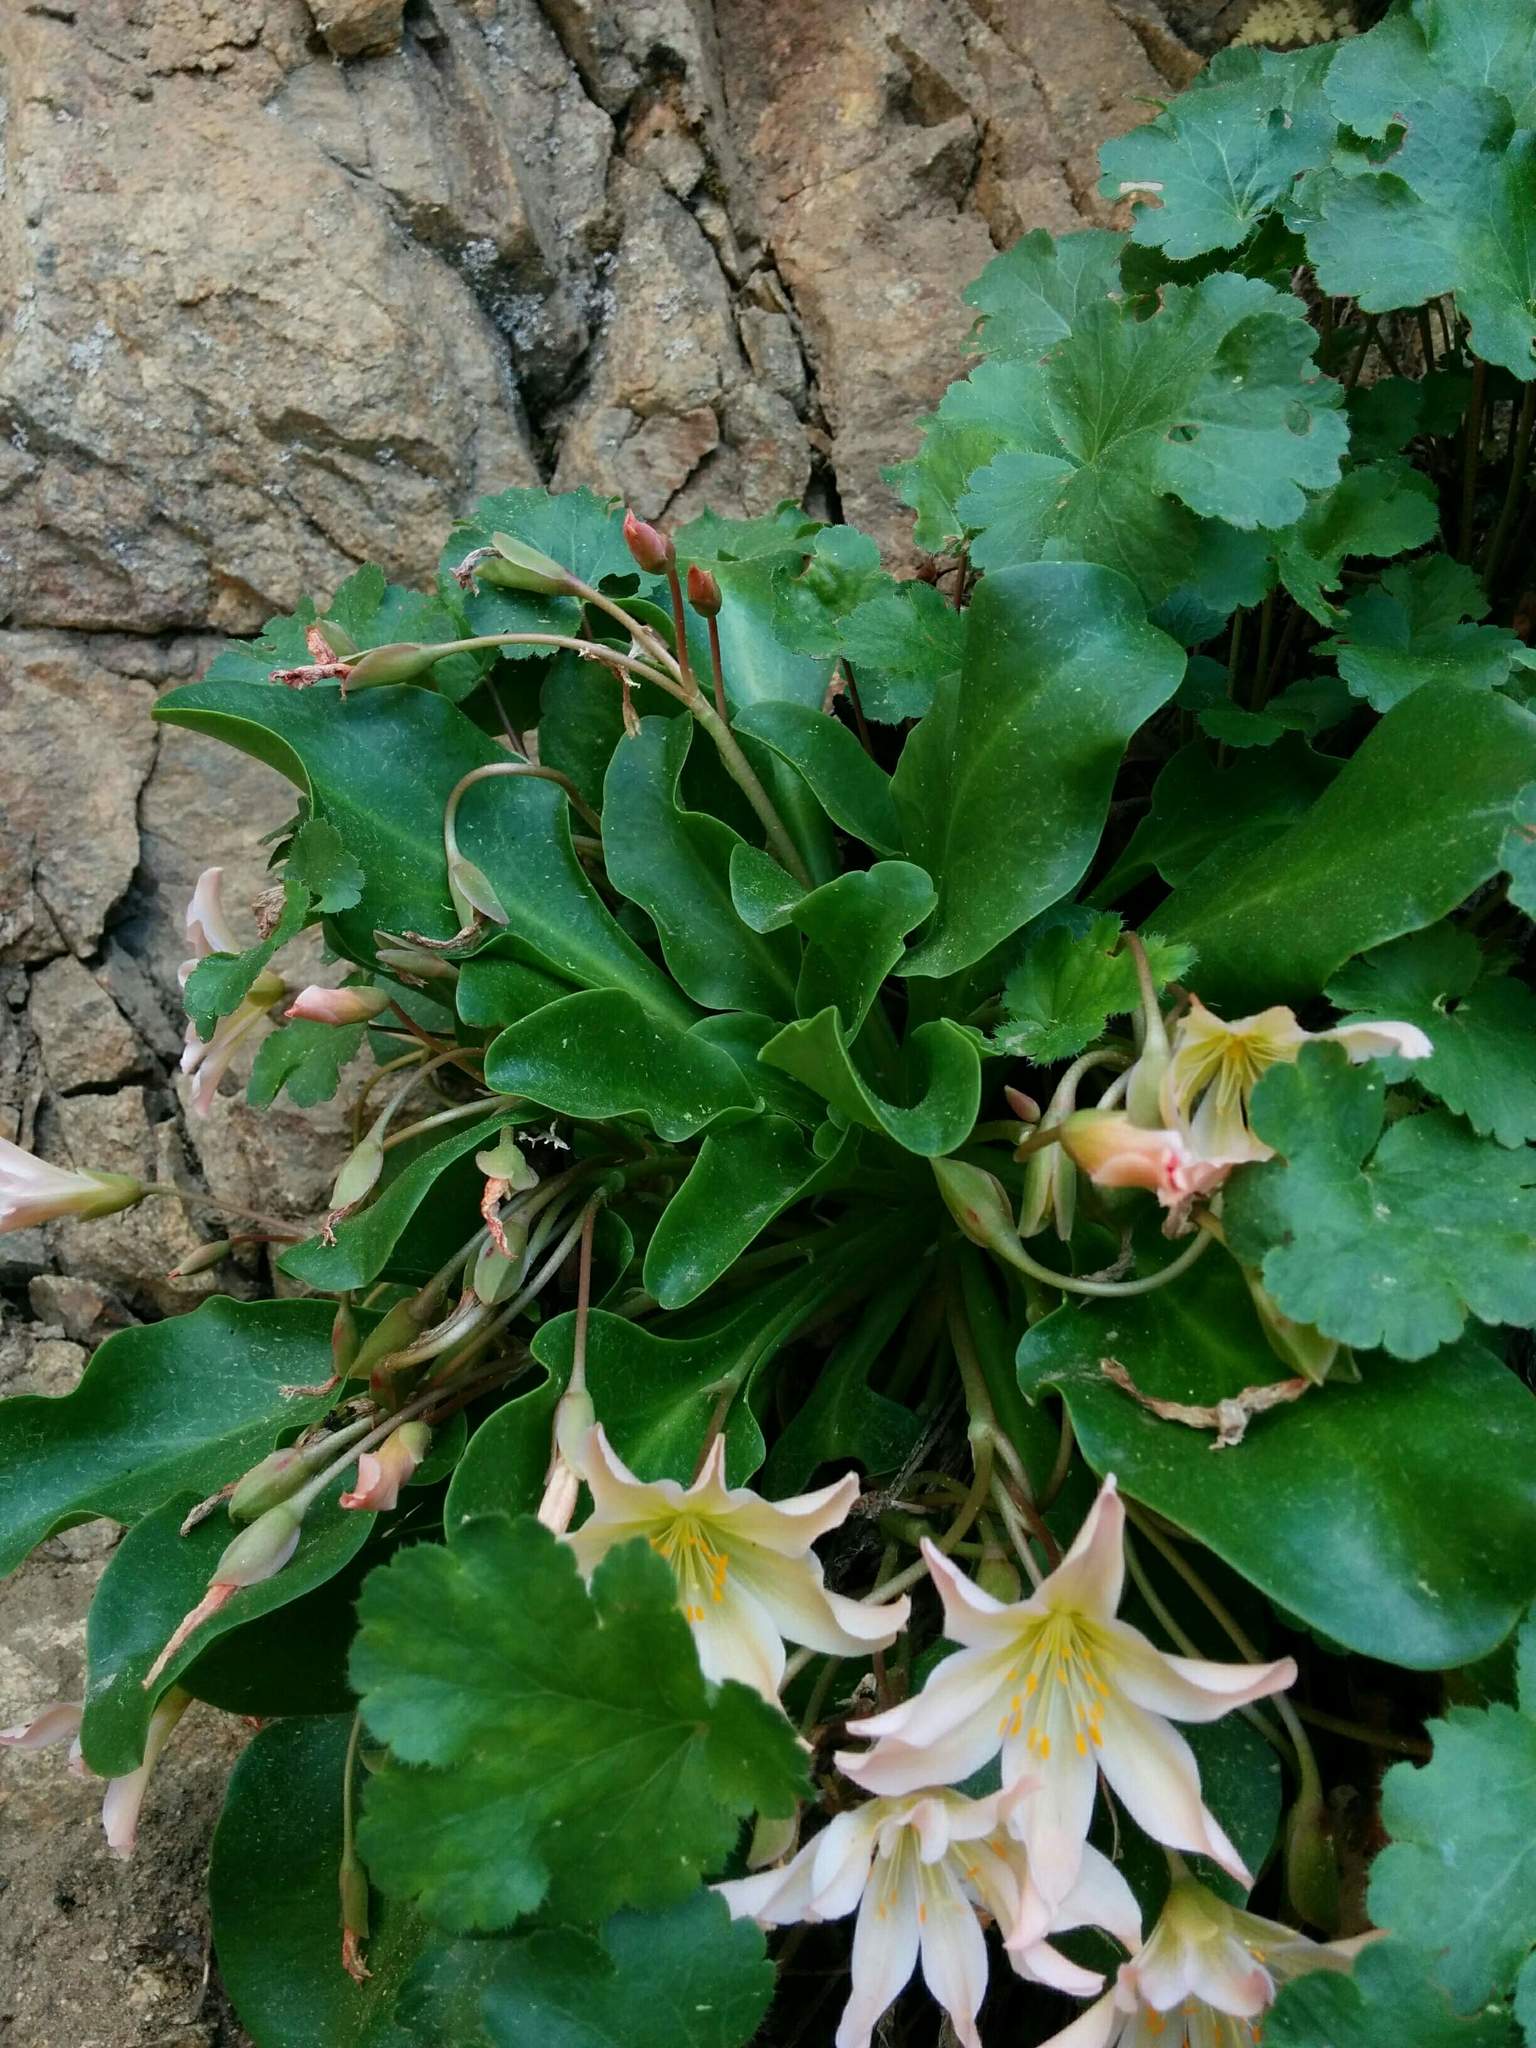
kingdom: Plantae
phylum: Tracheophyta
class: Magnoliopsida
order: Caryophyllales
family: Montiaceae
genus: Lewisiopsis
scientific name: Lewisiopsis tweedyi
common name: Tweedy's pussypaws
